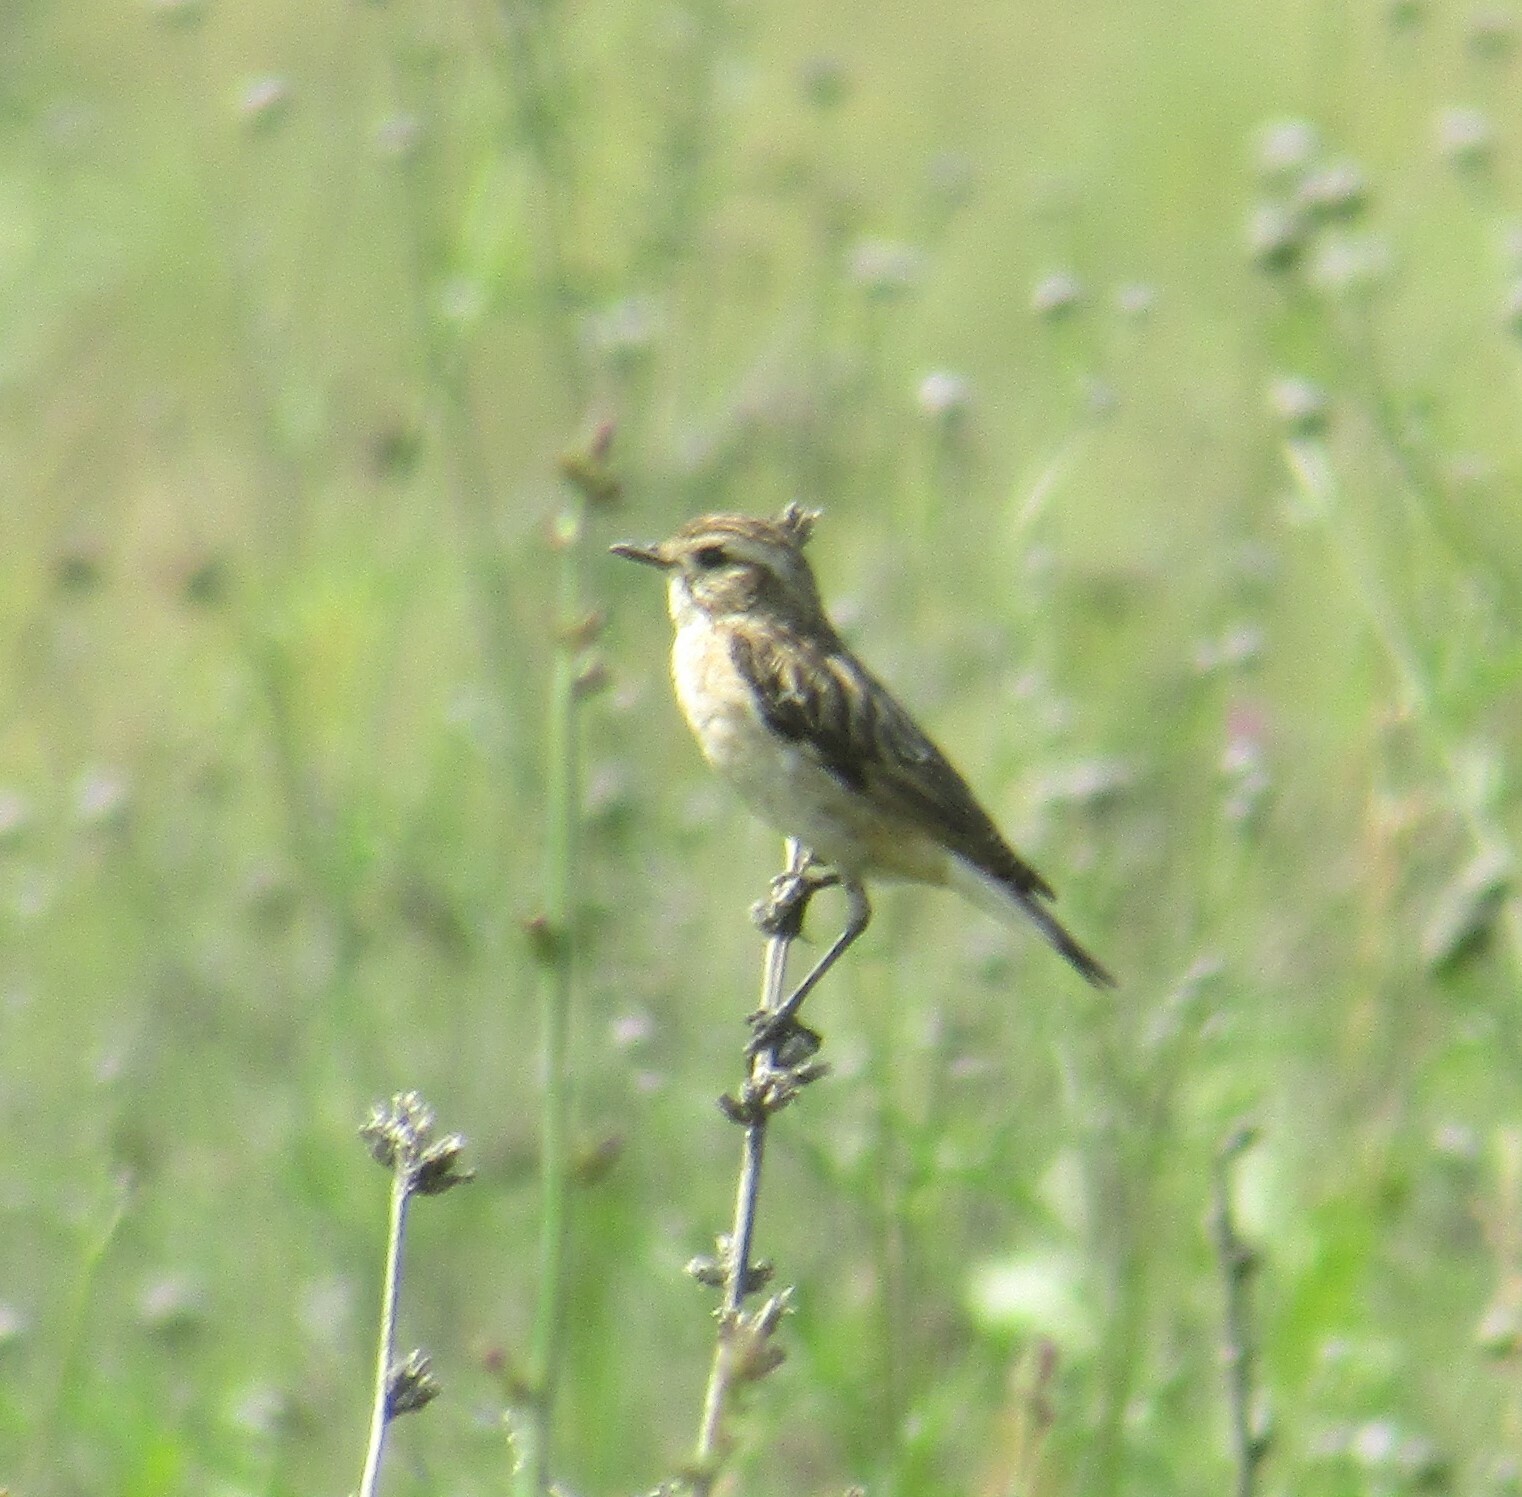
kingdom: Animalia
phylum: Chordata
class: Aves
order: Passeriformes
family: Muscicapidae
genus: Saxicola
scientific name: Saxicola rubetra
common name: Whinchat
